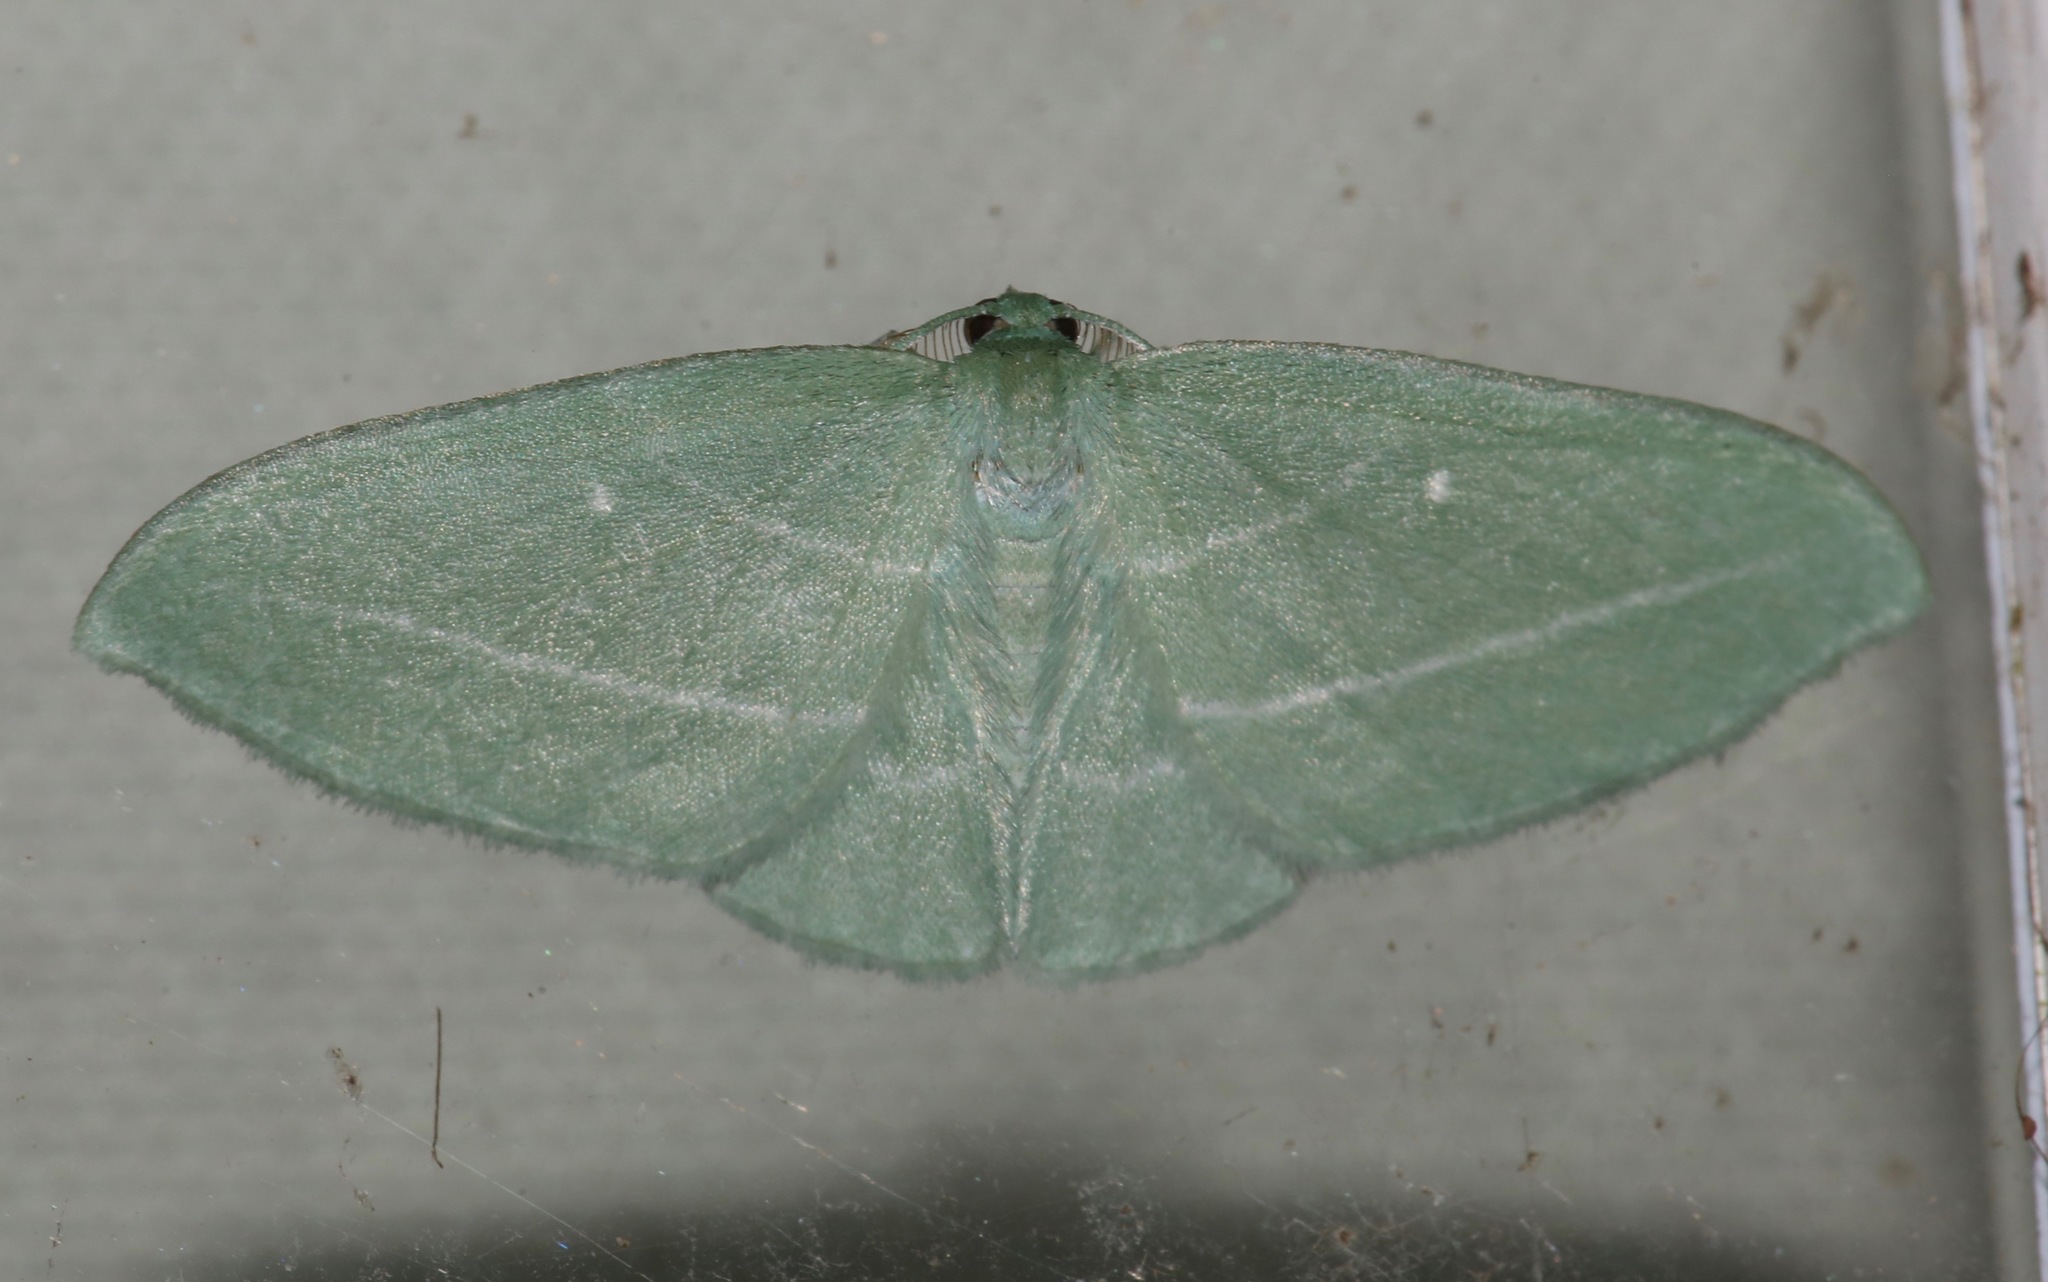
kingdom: Animalia
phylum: Arthropoda
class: Insecta
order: Lepidoptera
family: Geometridae
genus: Dyspteris
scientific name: Dyspteris abortivaria
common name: Bad-wing
